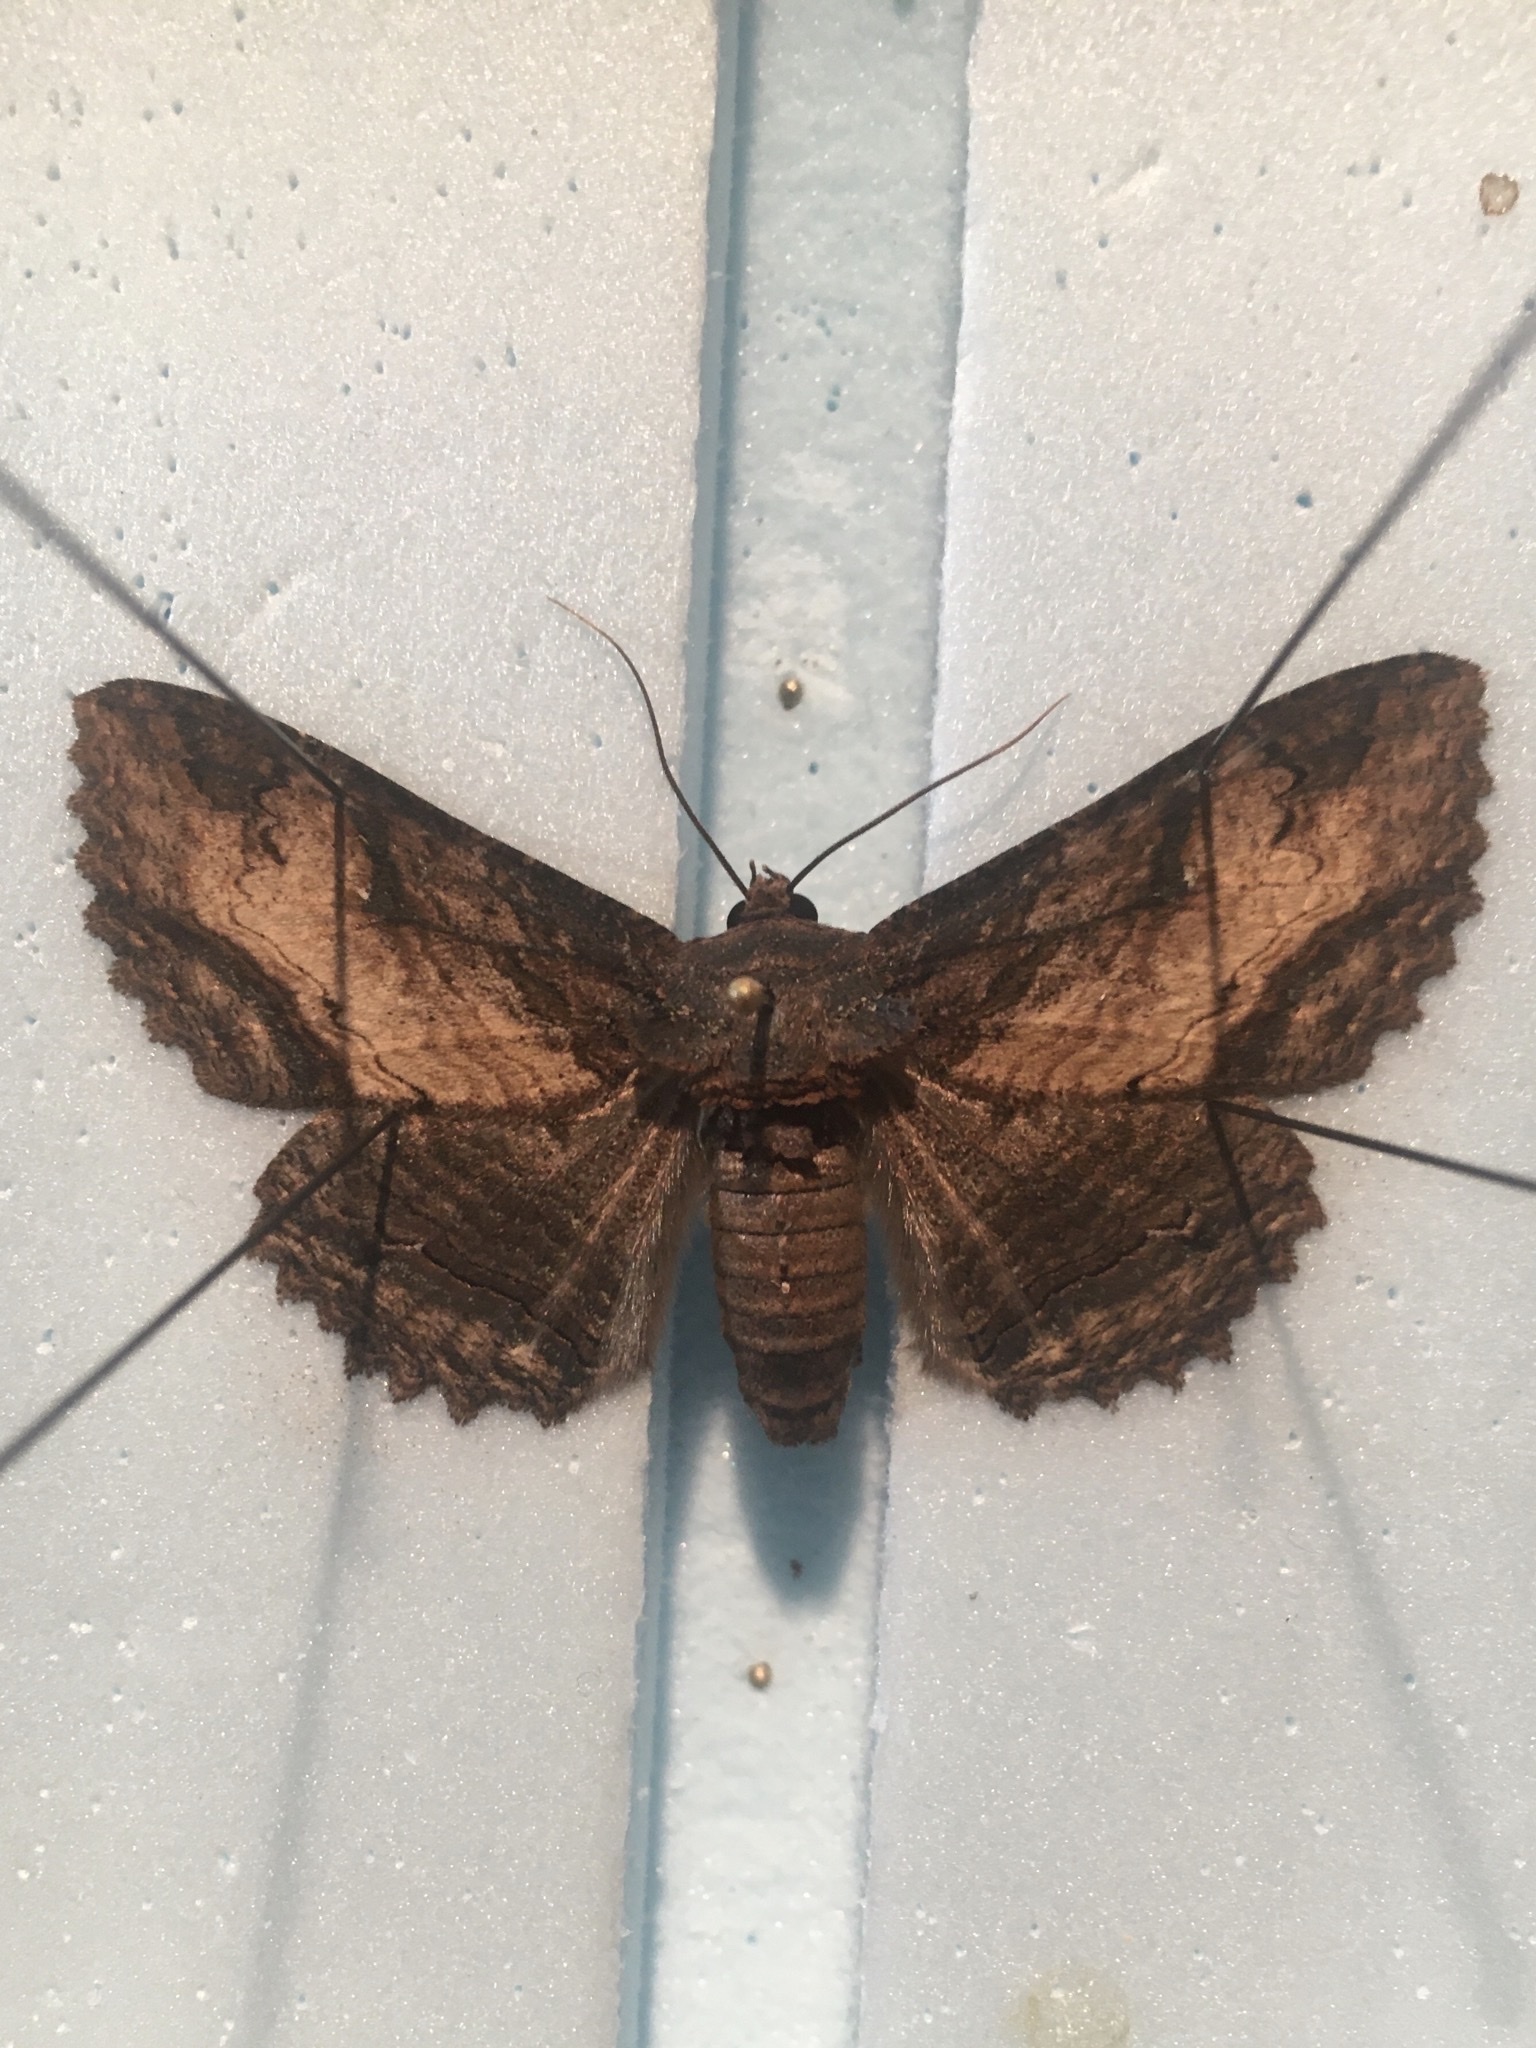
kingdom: Animalia
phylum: Arthropoda
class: Insecta
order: Lepidoptera
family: Erebidae
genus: Zale
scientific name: Zale minerea
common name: Colorful zale moth
